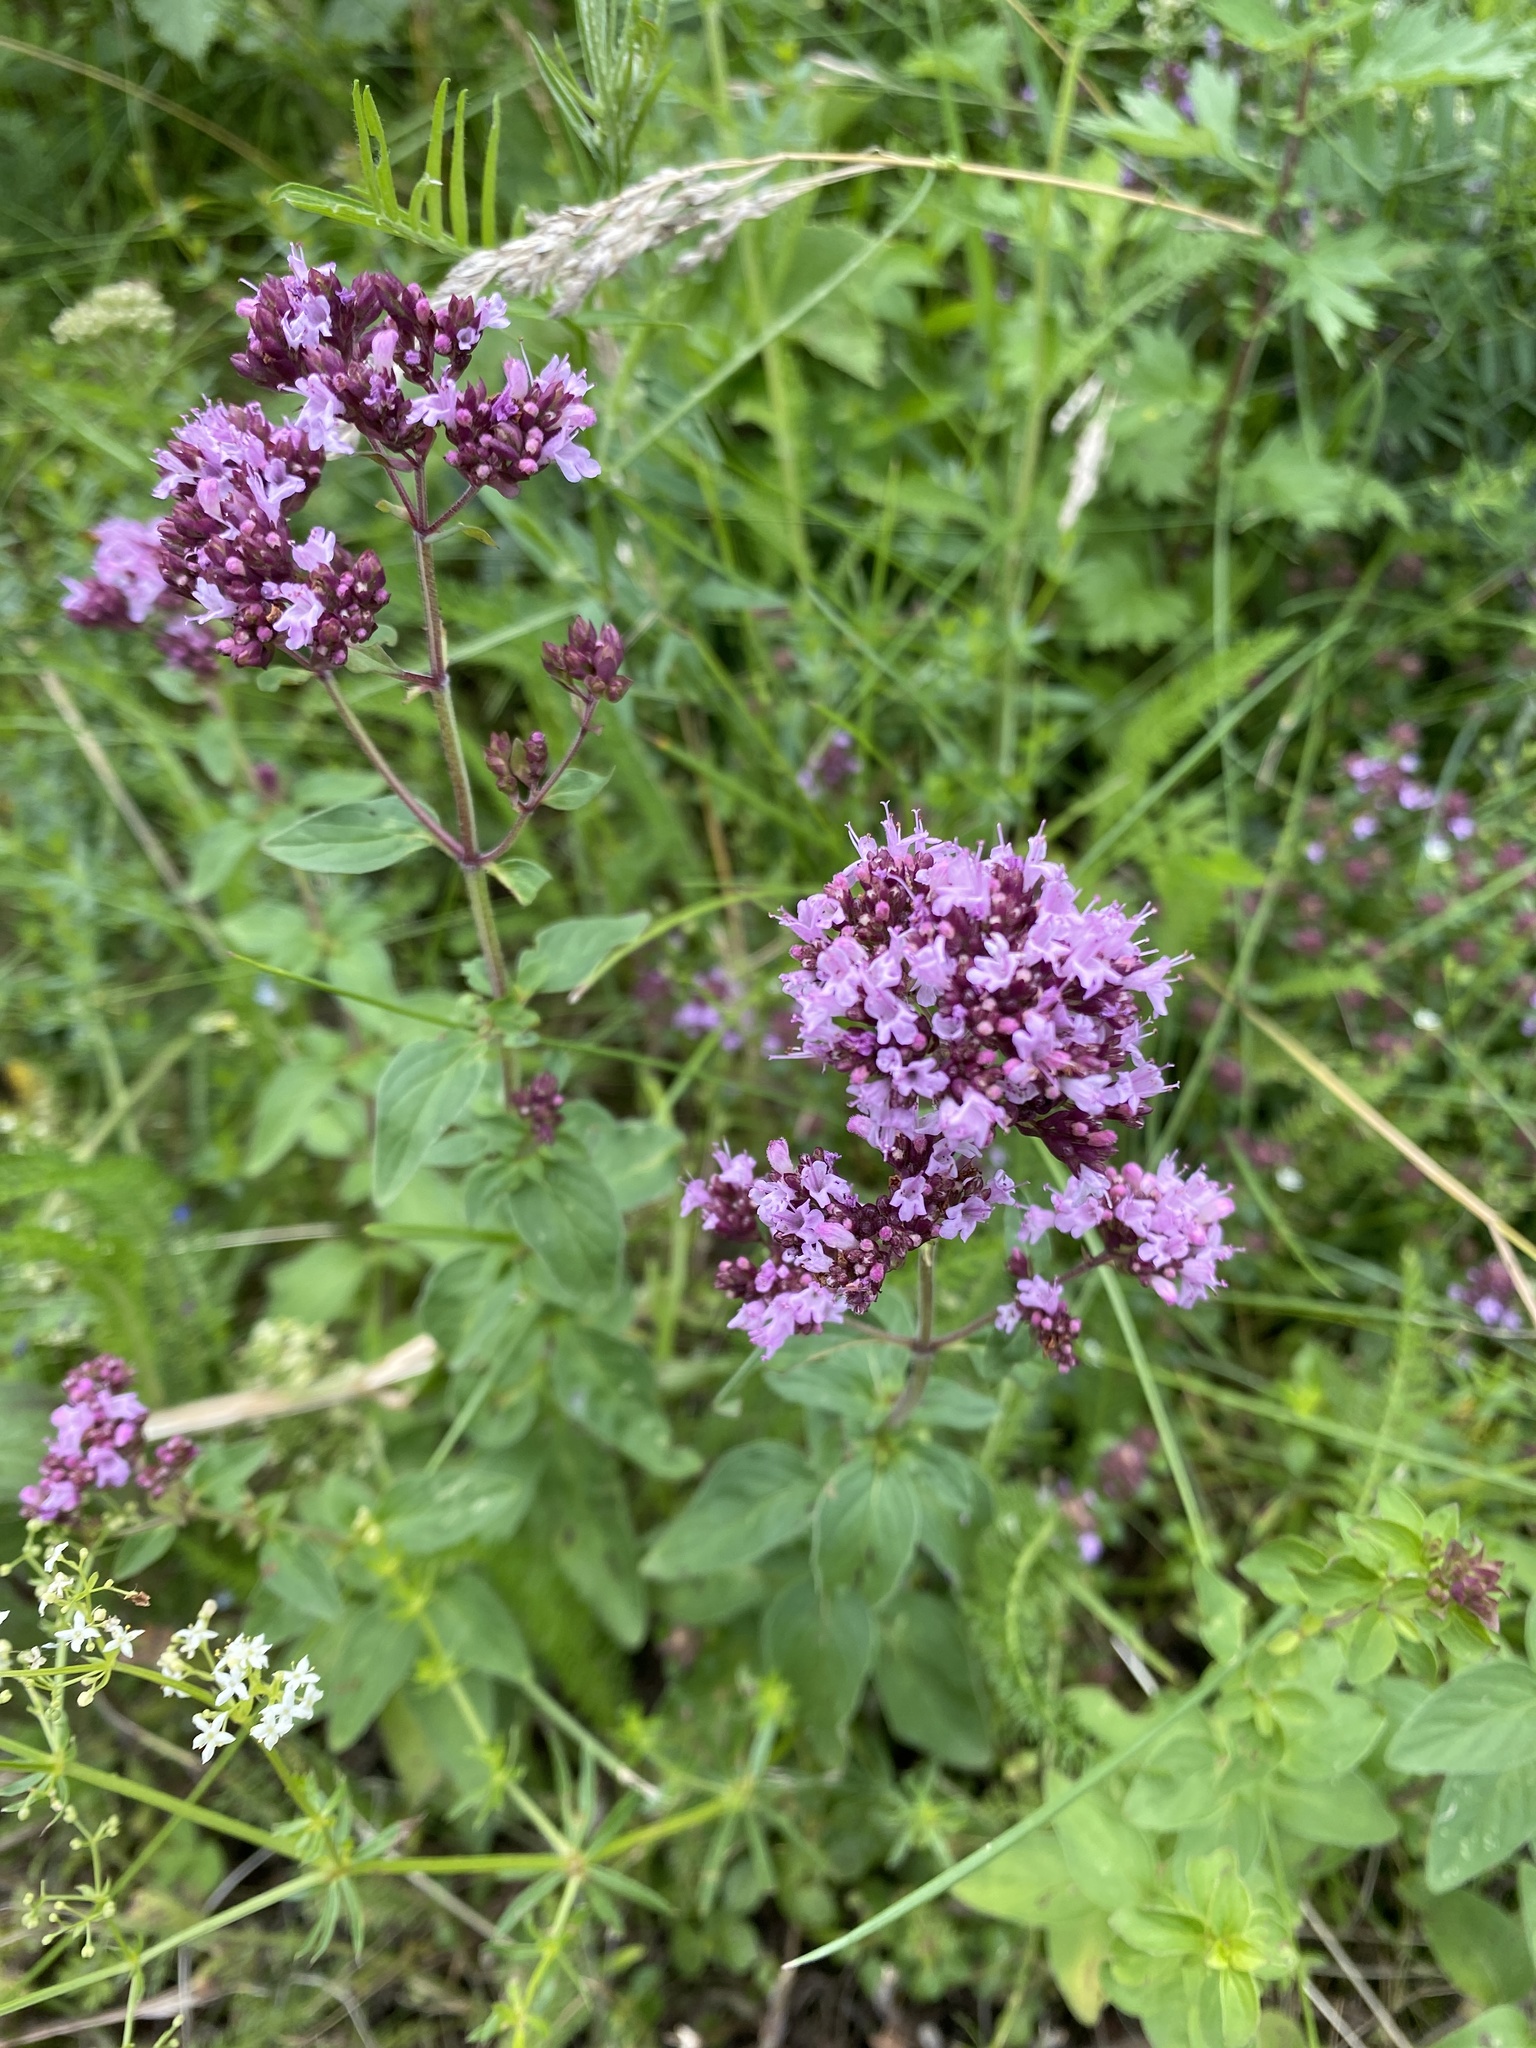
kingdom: Plantae
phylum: Tracheophyta
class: Magnoliopsida
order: Lamiales
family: Lamiaceae
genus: Origanum
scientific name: Origanum vulgare
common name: Wild marjoram
